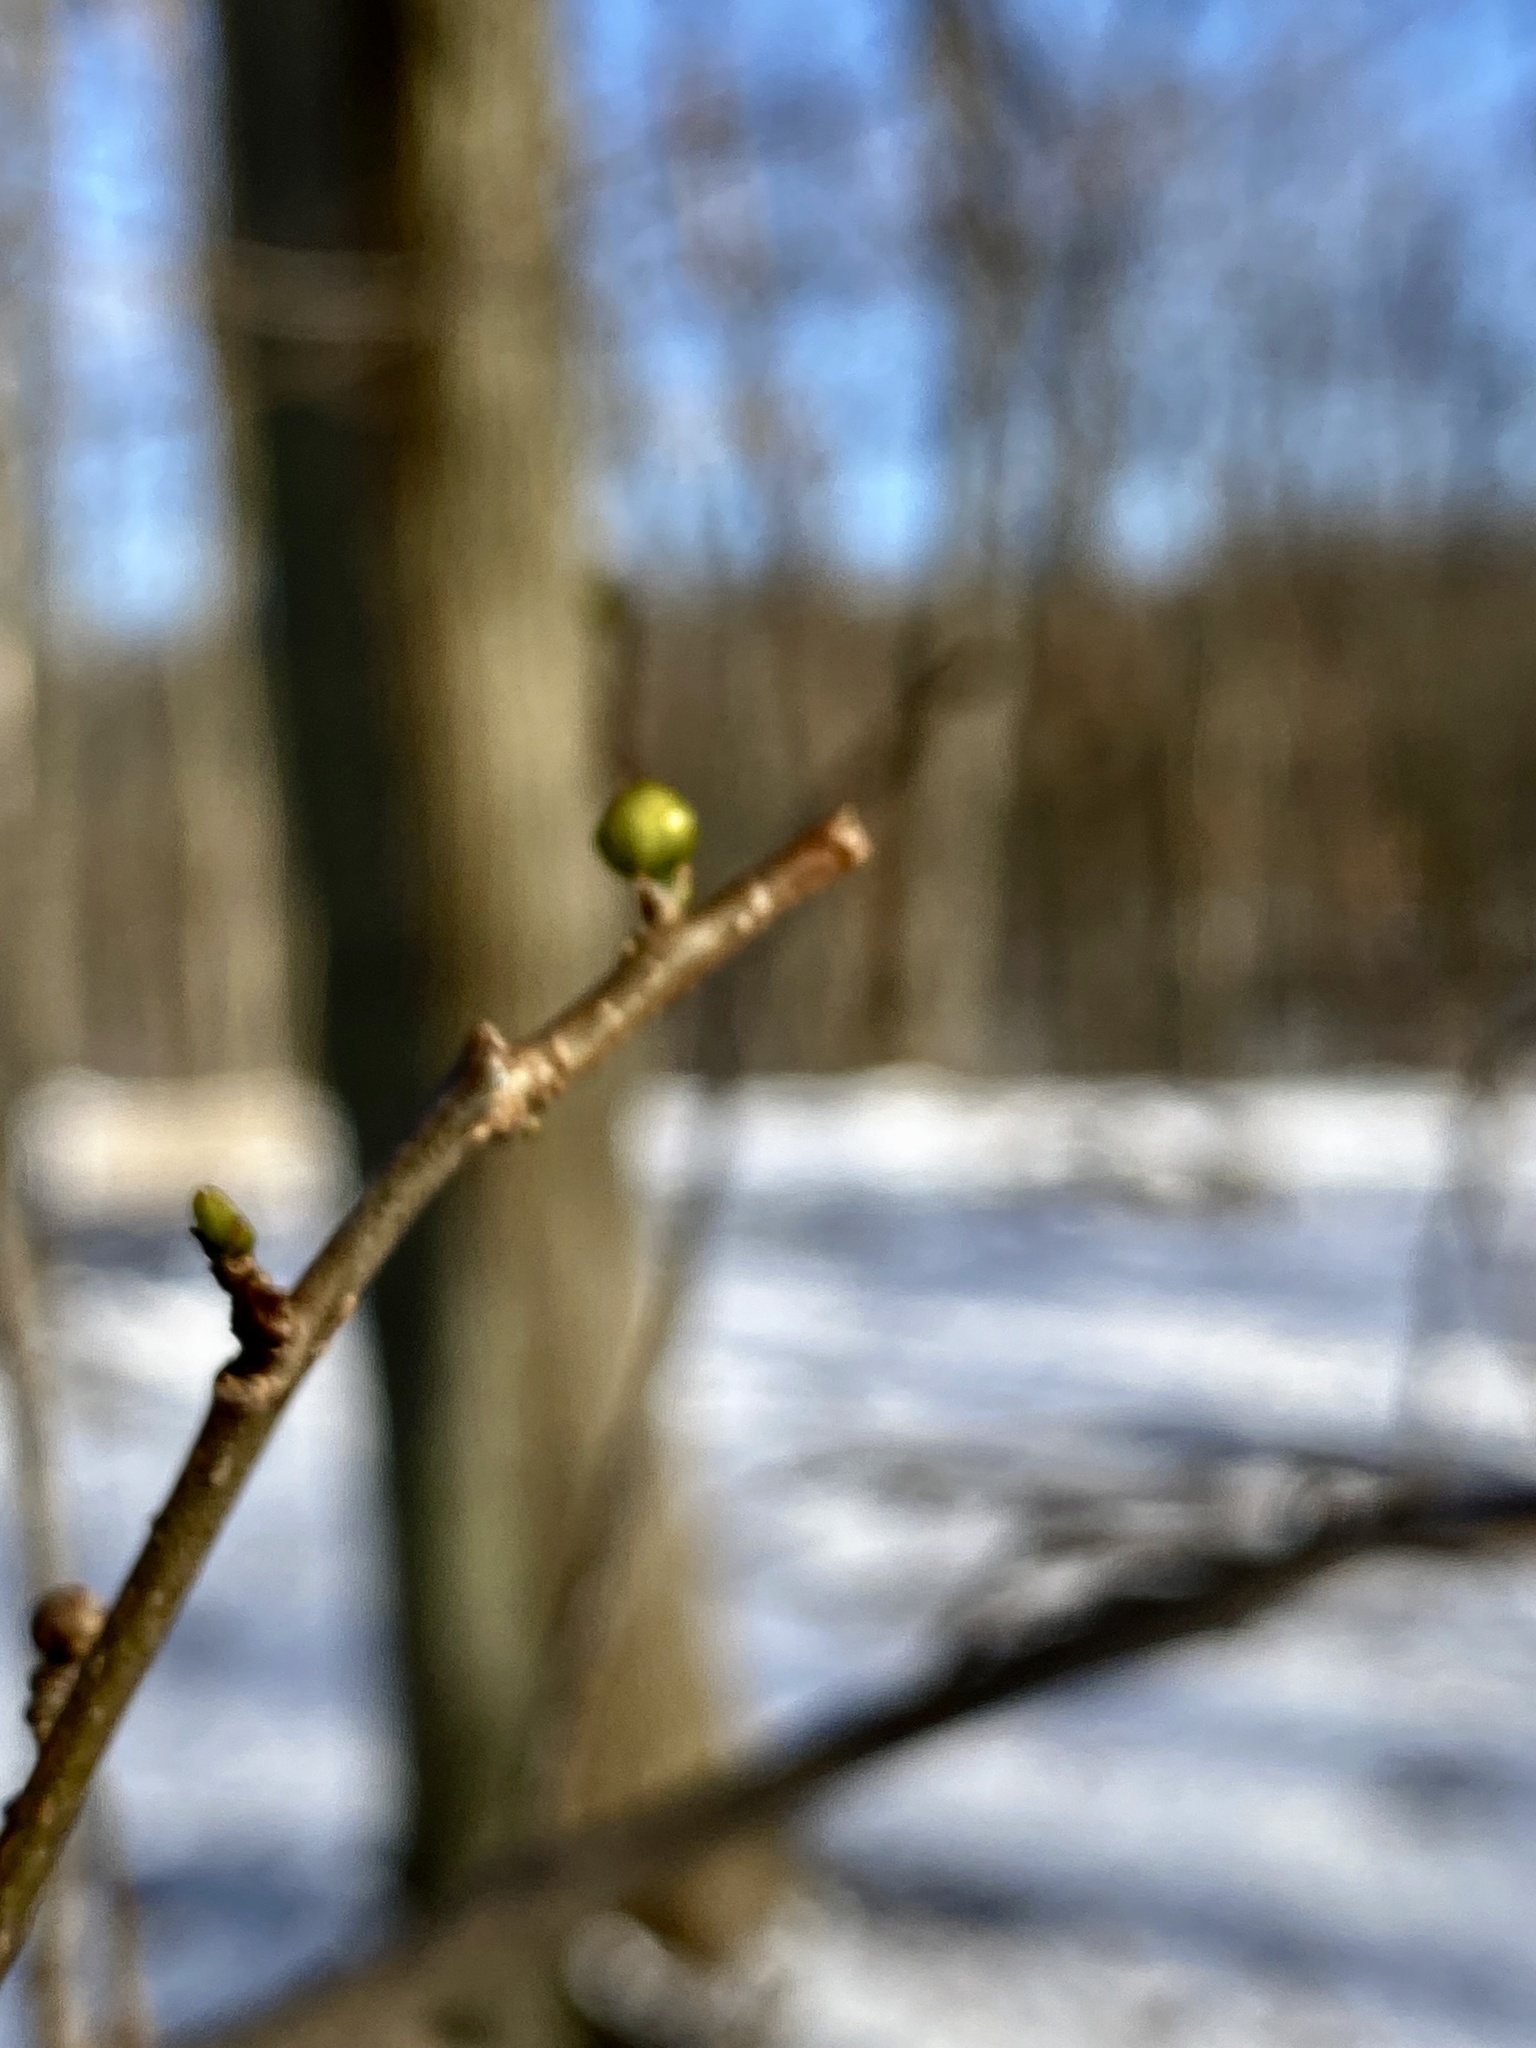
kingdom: Plantae
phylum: Tracheophyta
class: Magnoliopsida
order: Laurales
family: Lauraceae
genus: Lindera
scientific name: Lindera benzoin
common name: Spicebush
